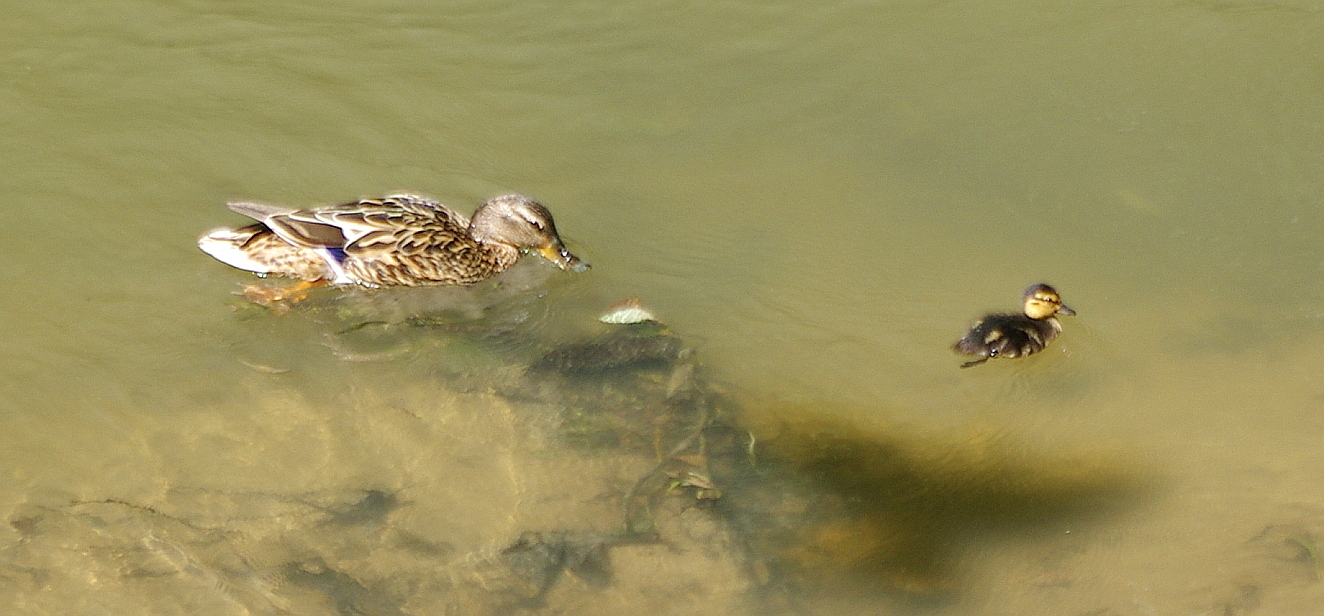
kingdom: Animalia
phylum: Chordata
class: Aves
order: Anseriformes
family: Anatidae
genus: Anas
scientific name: Anas platyrhynchos
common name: Mallard
